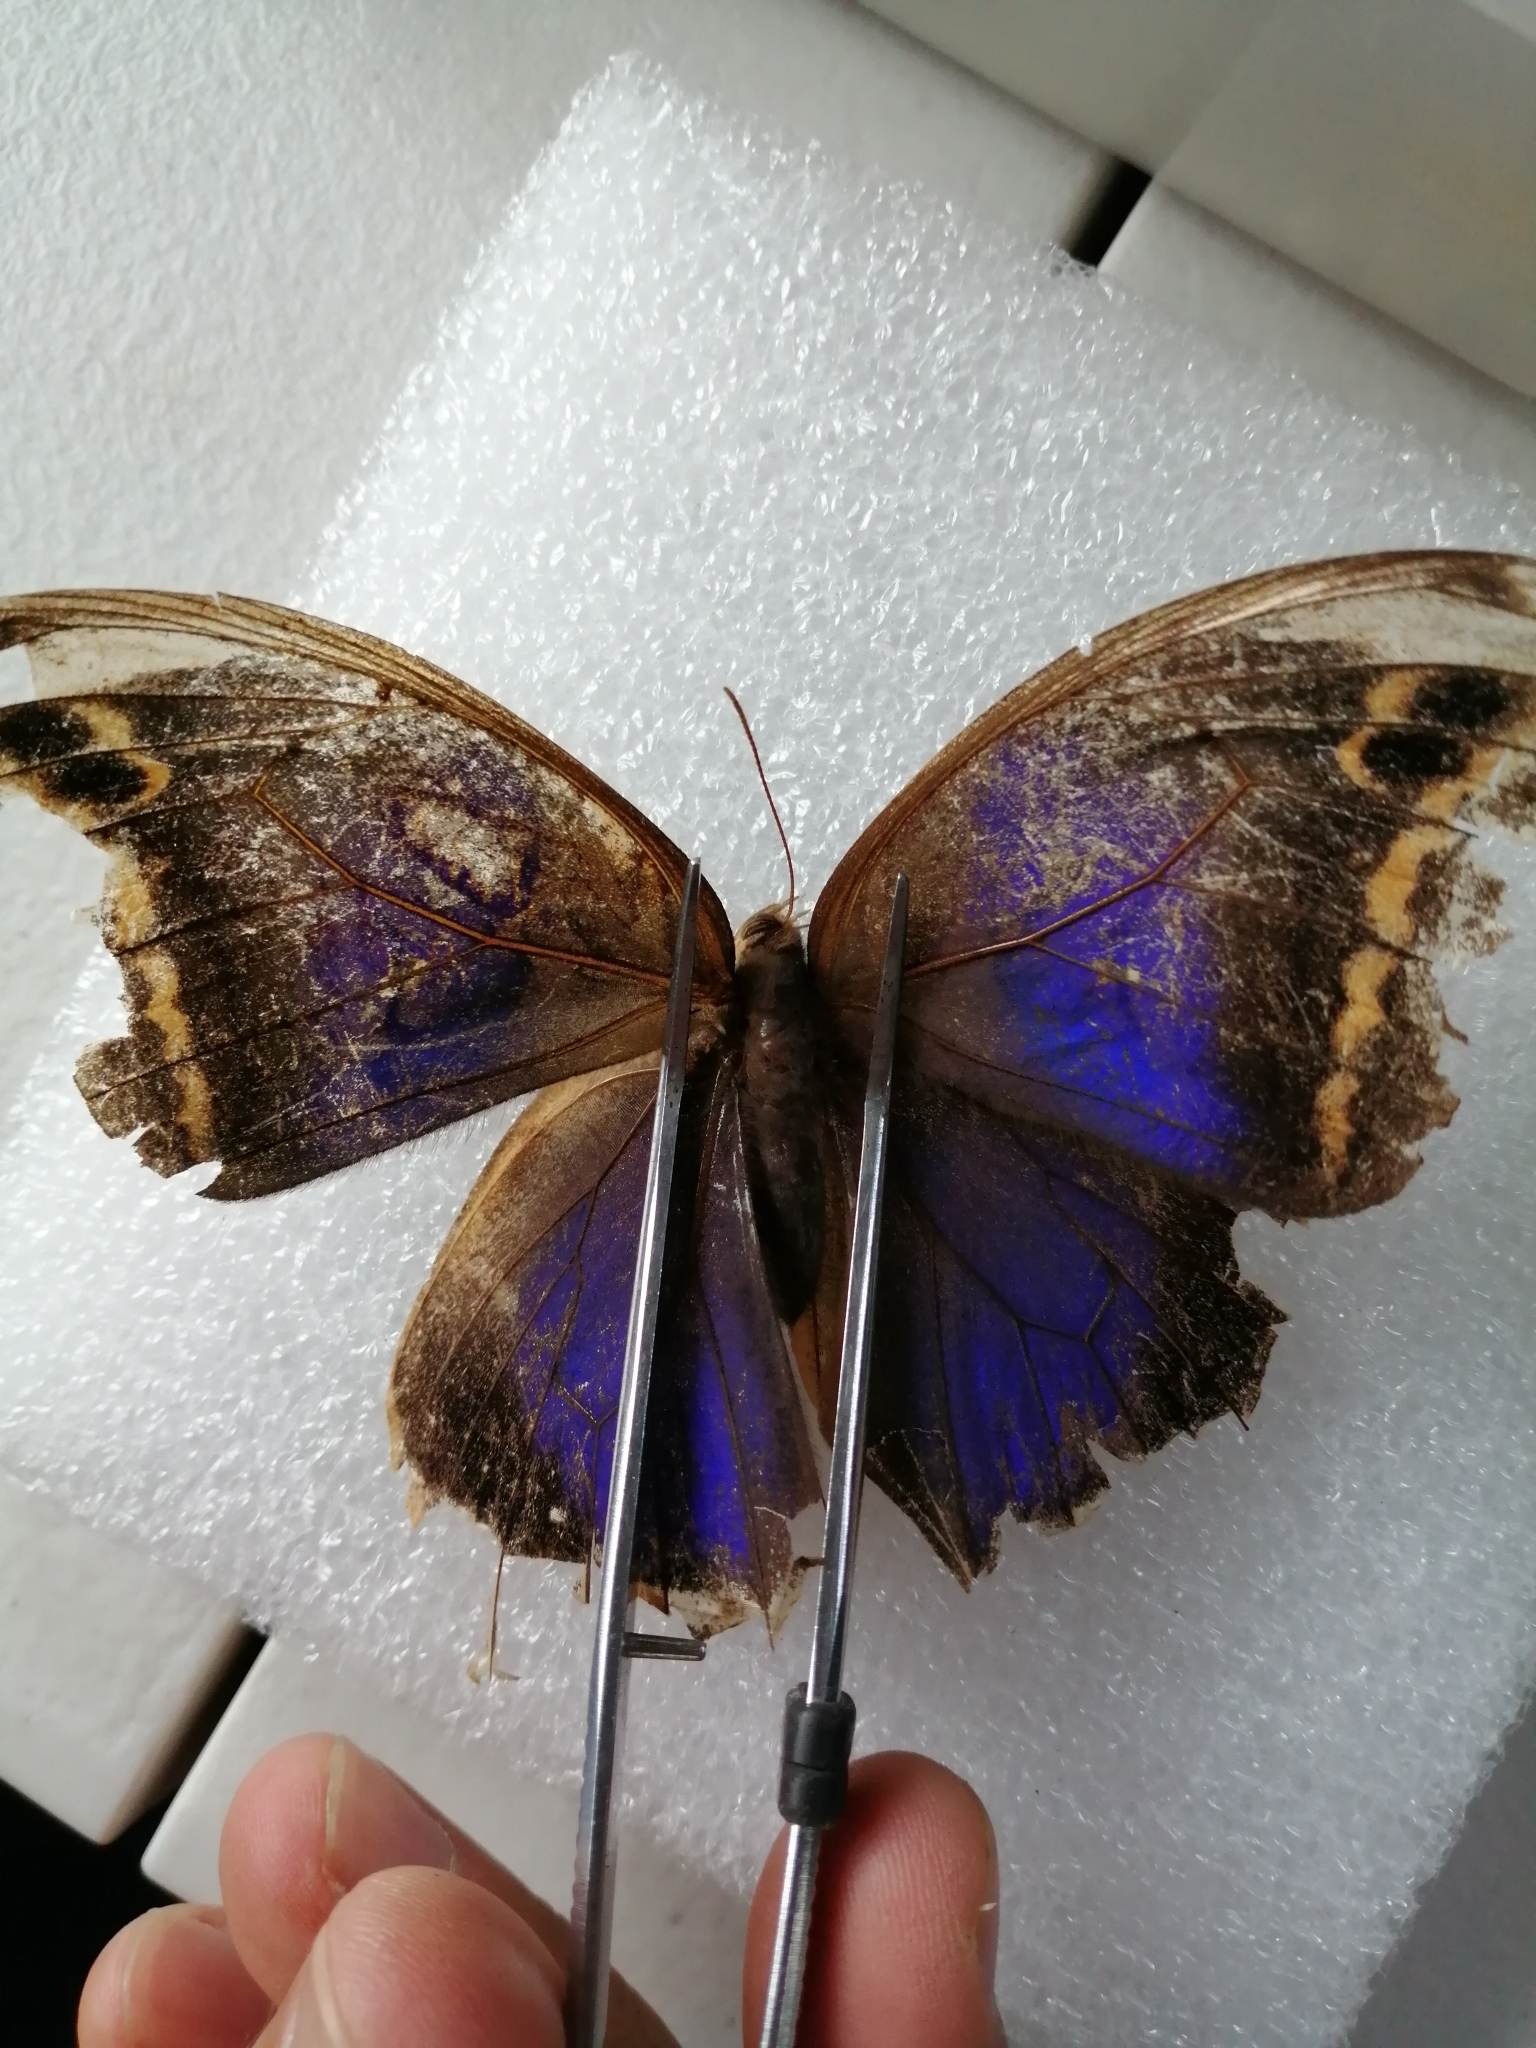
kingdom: Animalia
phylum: Arthropoda
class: Insecta
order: Lepidoptera
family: Nymphalidae
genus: Eryphanis
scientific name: Eryphanis aesacus
